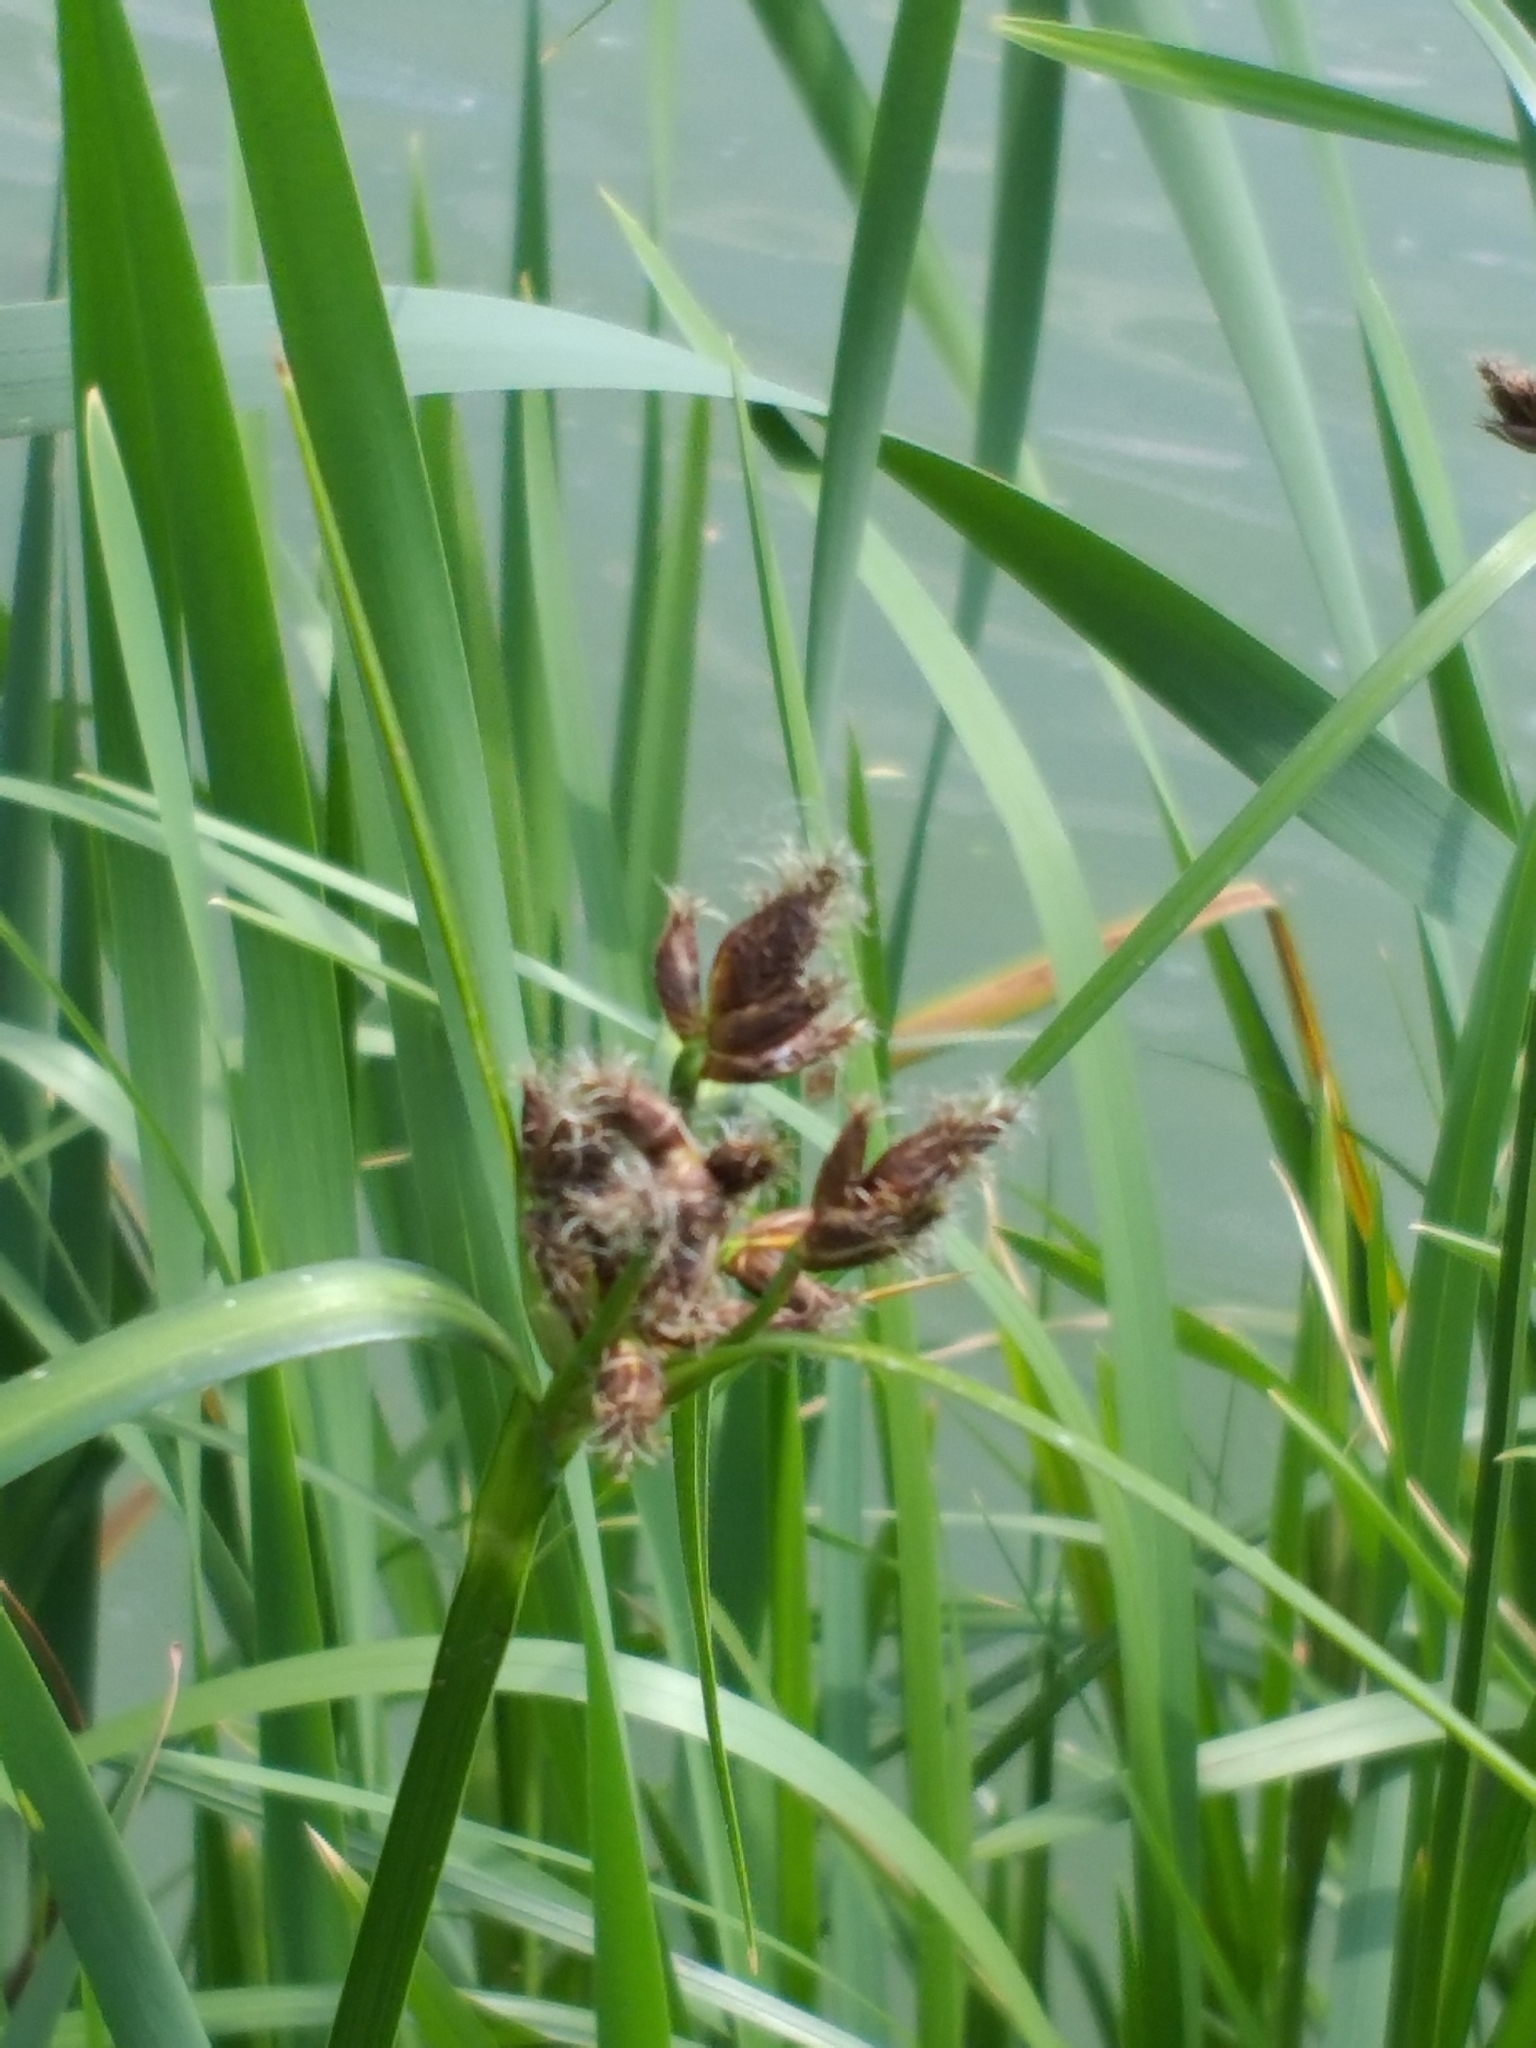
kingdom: Plantae
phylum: Tracheophyta
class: Liliopsida
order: Poales
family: Cyperaceae
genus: Bolboschoenus
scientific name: Bolboschoenus laticarpus
